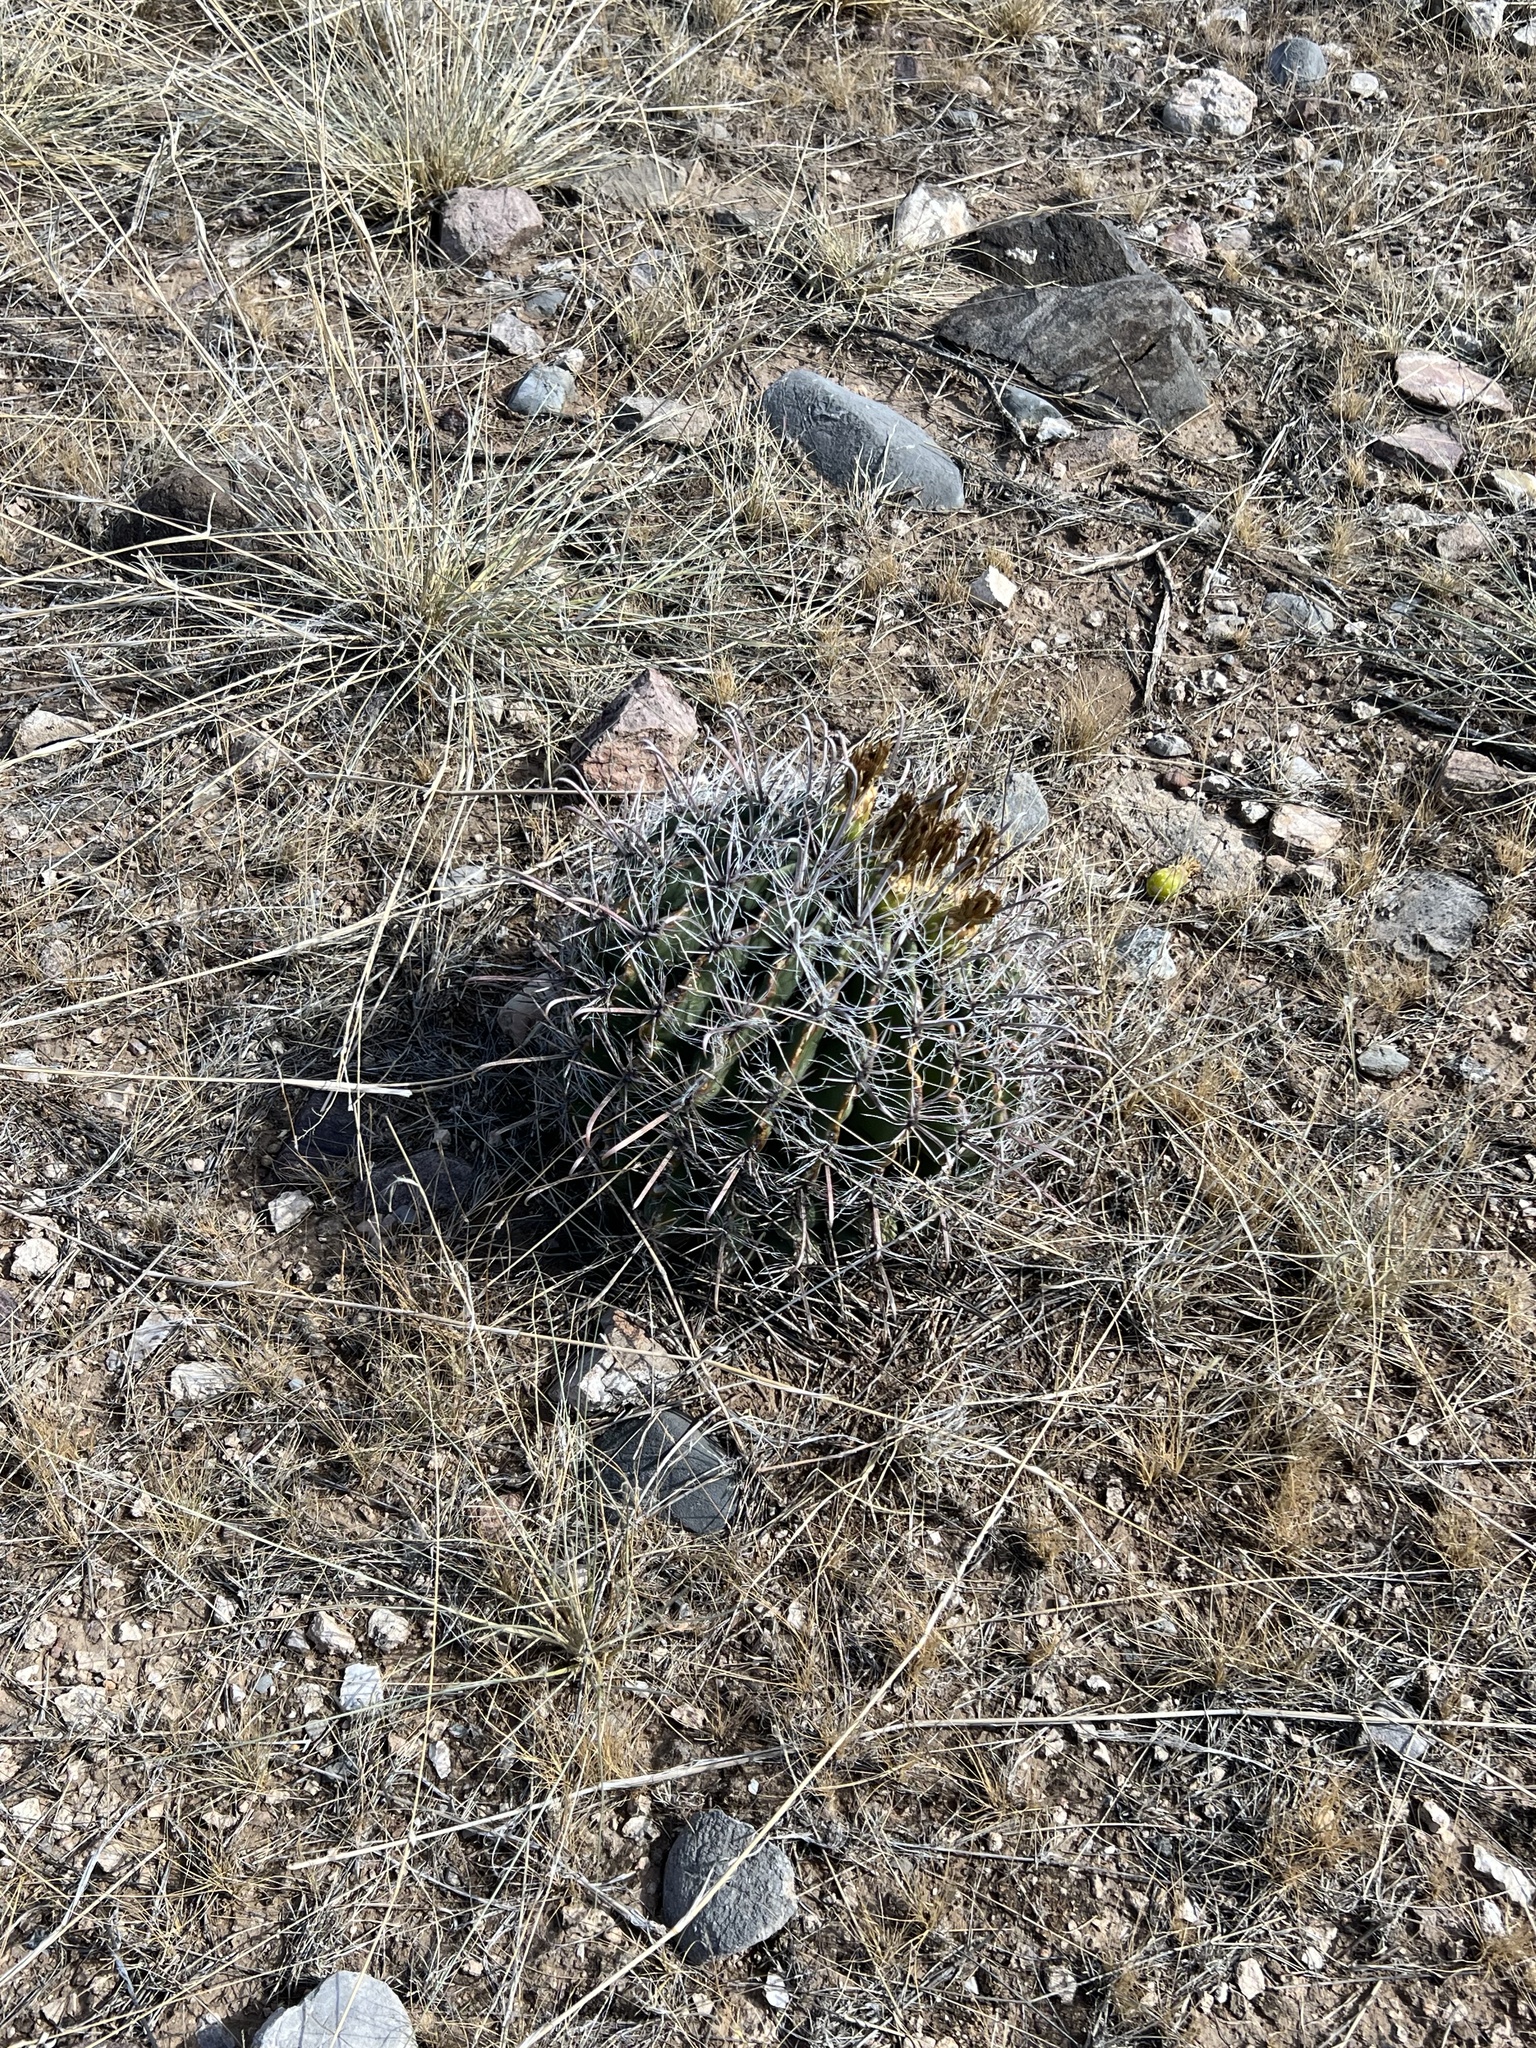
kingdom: Plantae
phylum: Tracheophyta
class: Magnoliopsida
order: Caryophyllales
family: Cactaceae
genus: Ferocactus
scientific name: Ferocactus wislizeni
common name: Candy barrel cactus
